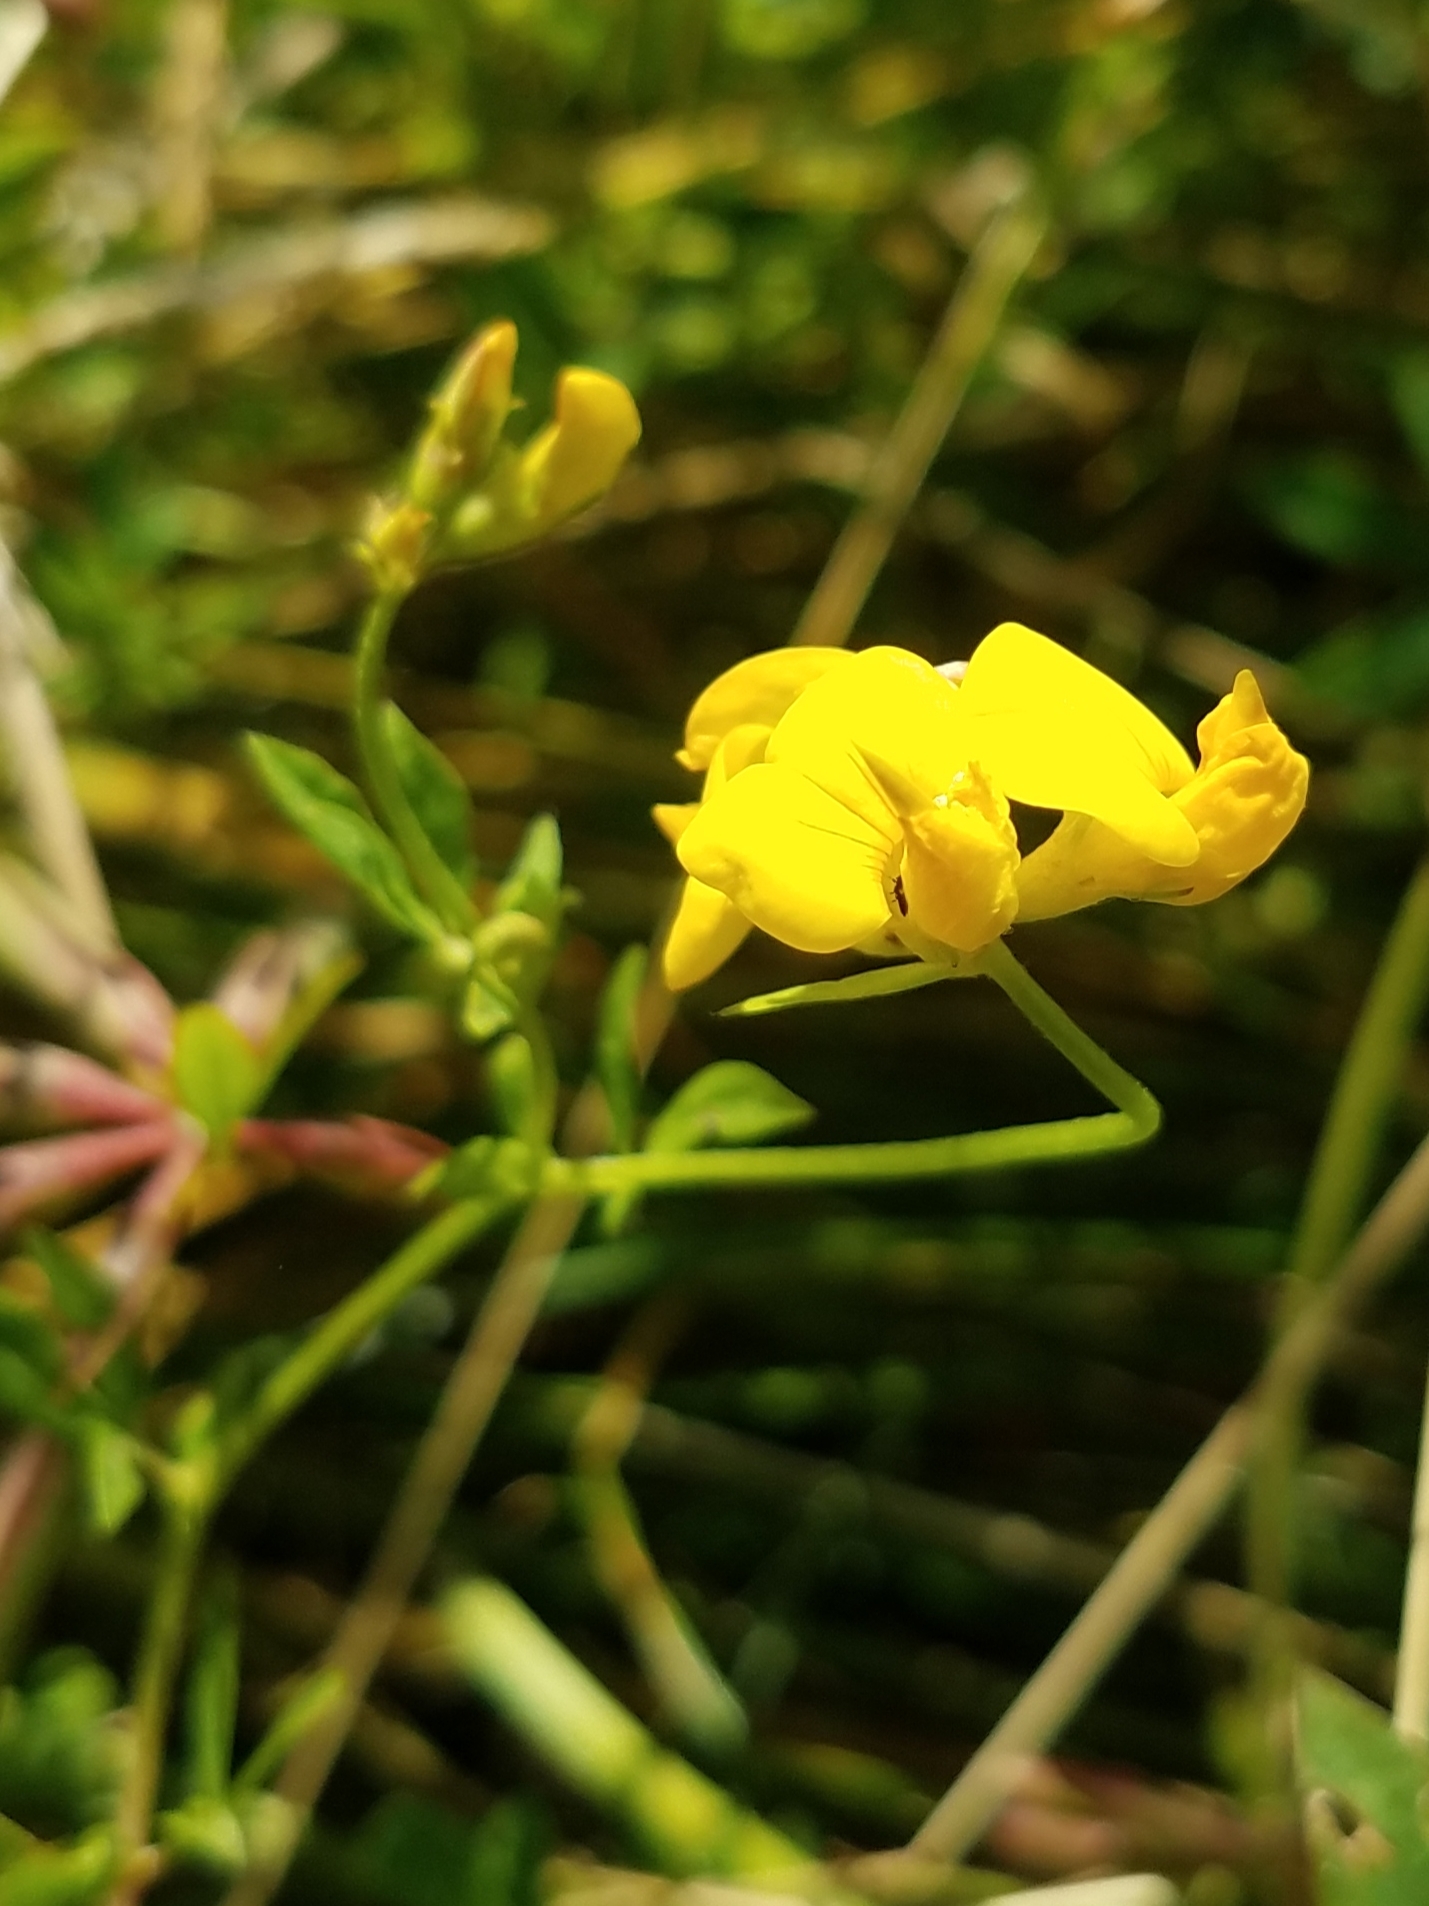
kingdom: Plantae
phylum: Tracheophyta
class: Magnoliopsida
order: Fabales
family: Fabaceae
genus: Lotus
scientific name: Lotus corniculatus
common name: Common bird's-foot-trefoil
